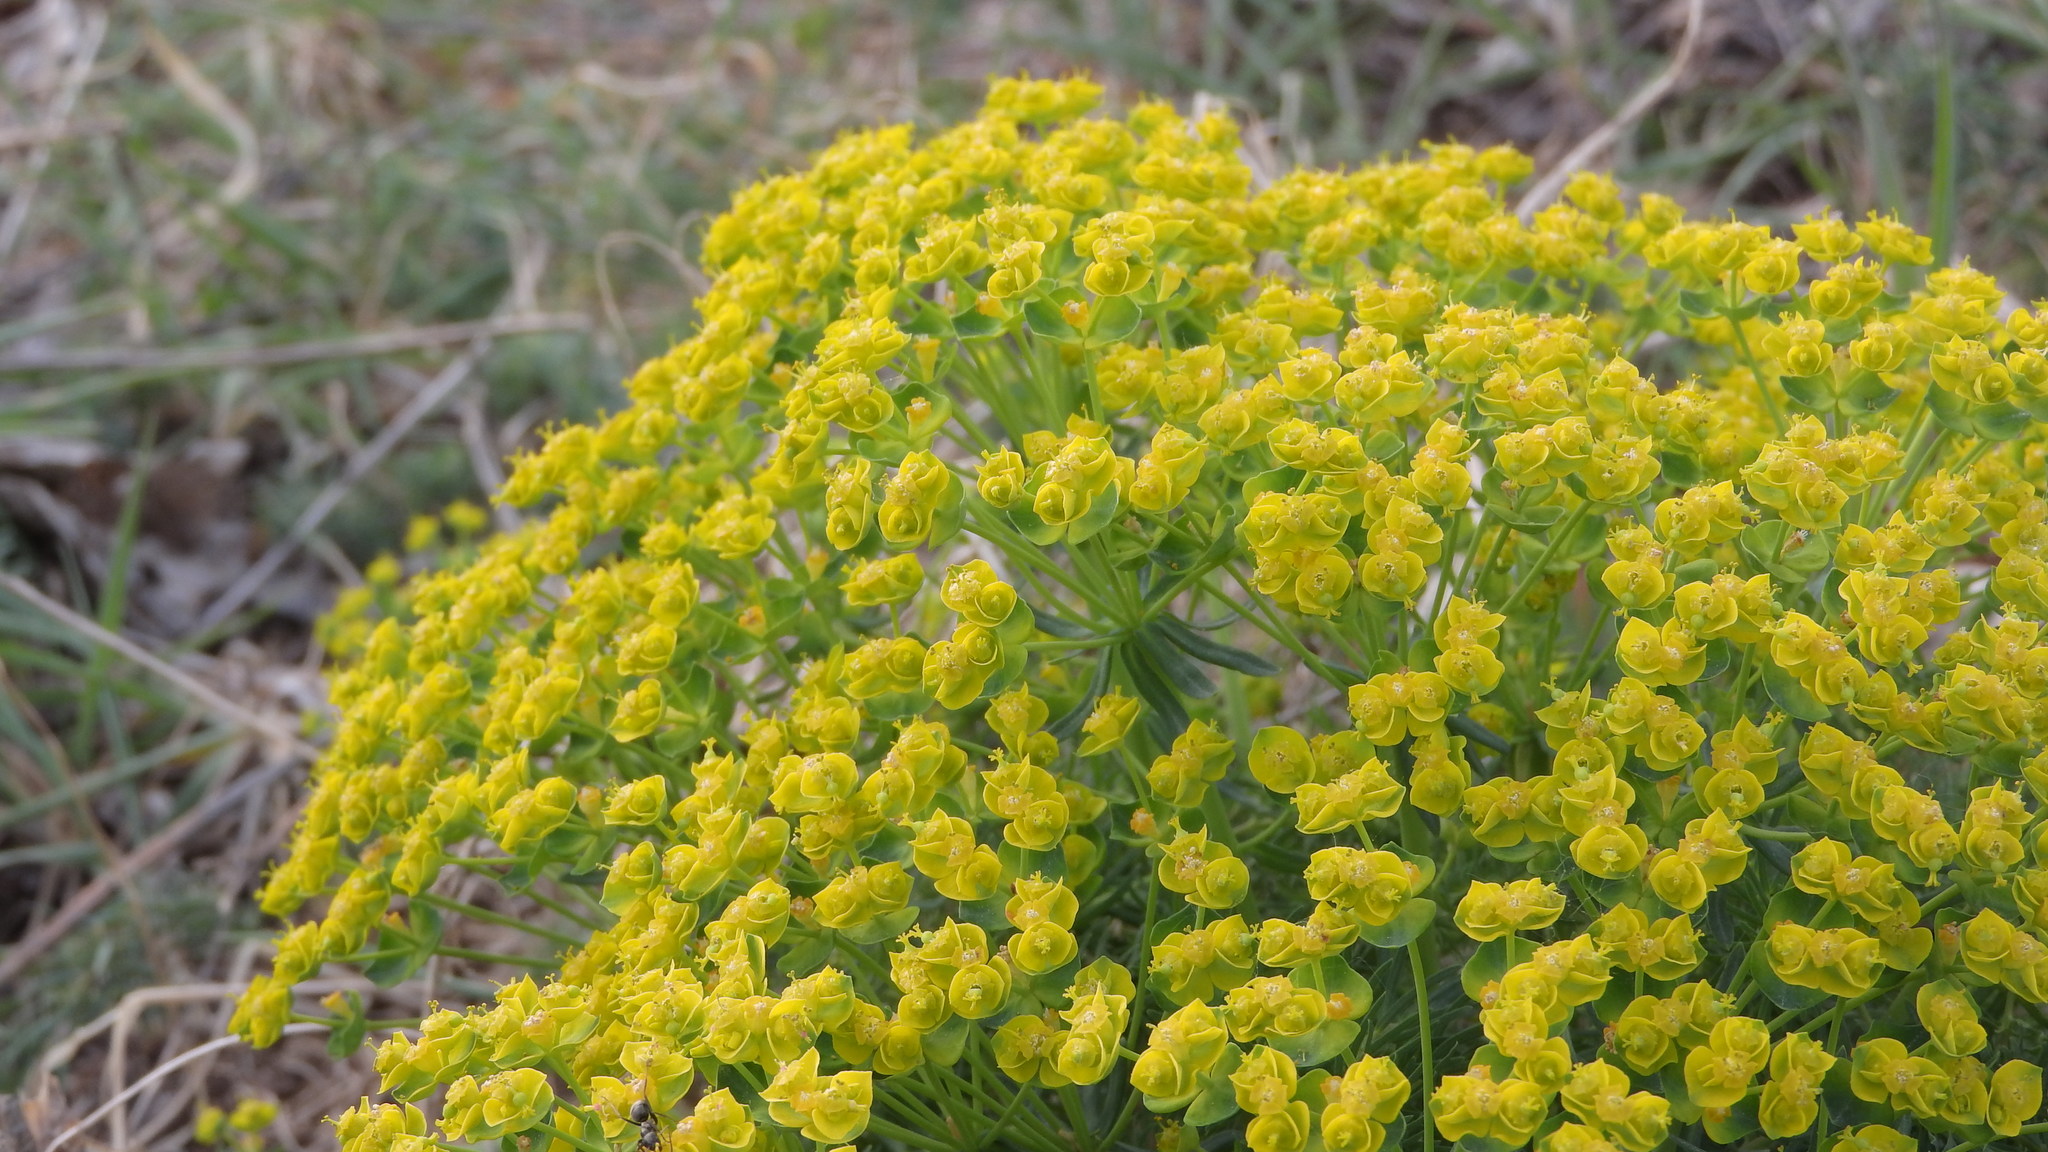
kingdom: Plantae
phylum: Tracheophyta
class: Magnoliopsida
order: Malpighiales
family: Euphorbiaceae
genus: Euphorbia
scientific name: Euphorbia cyparissias
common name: Cypress spurge
